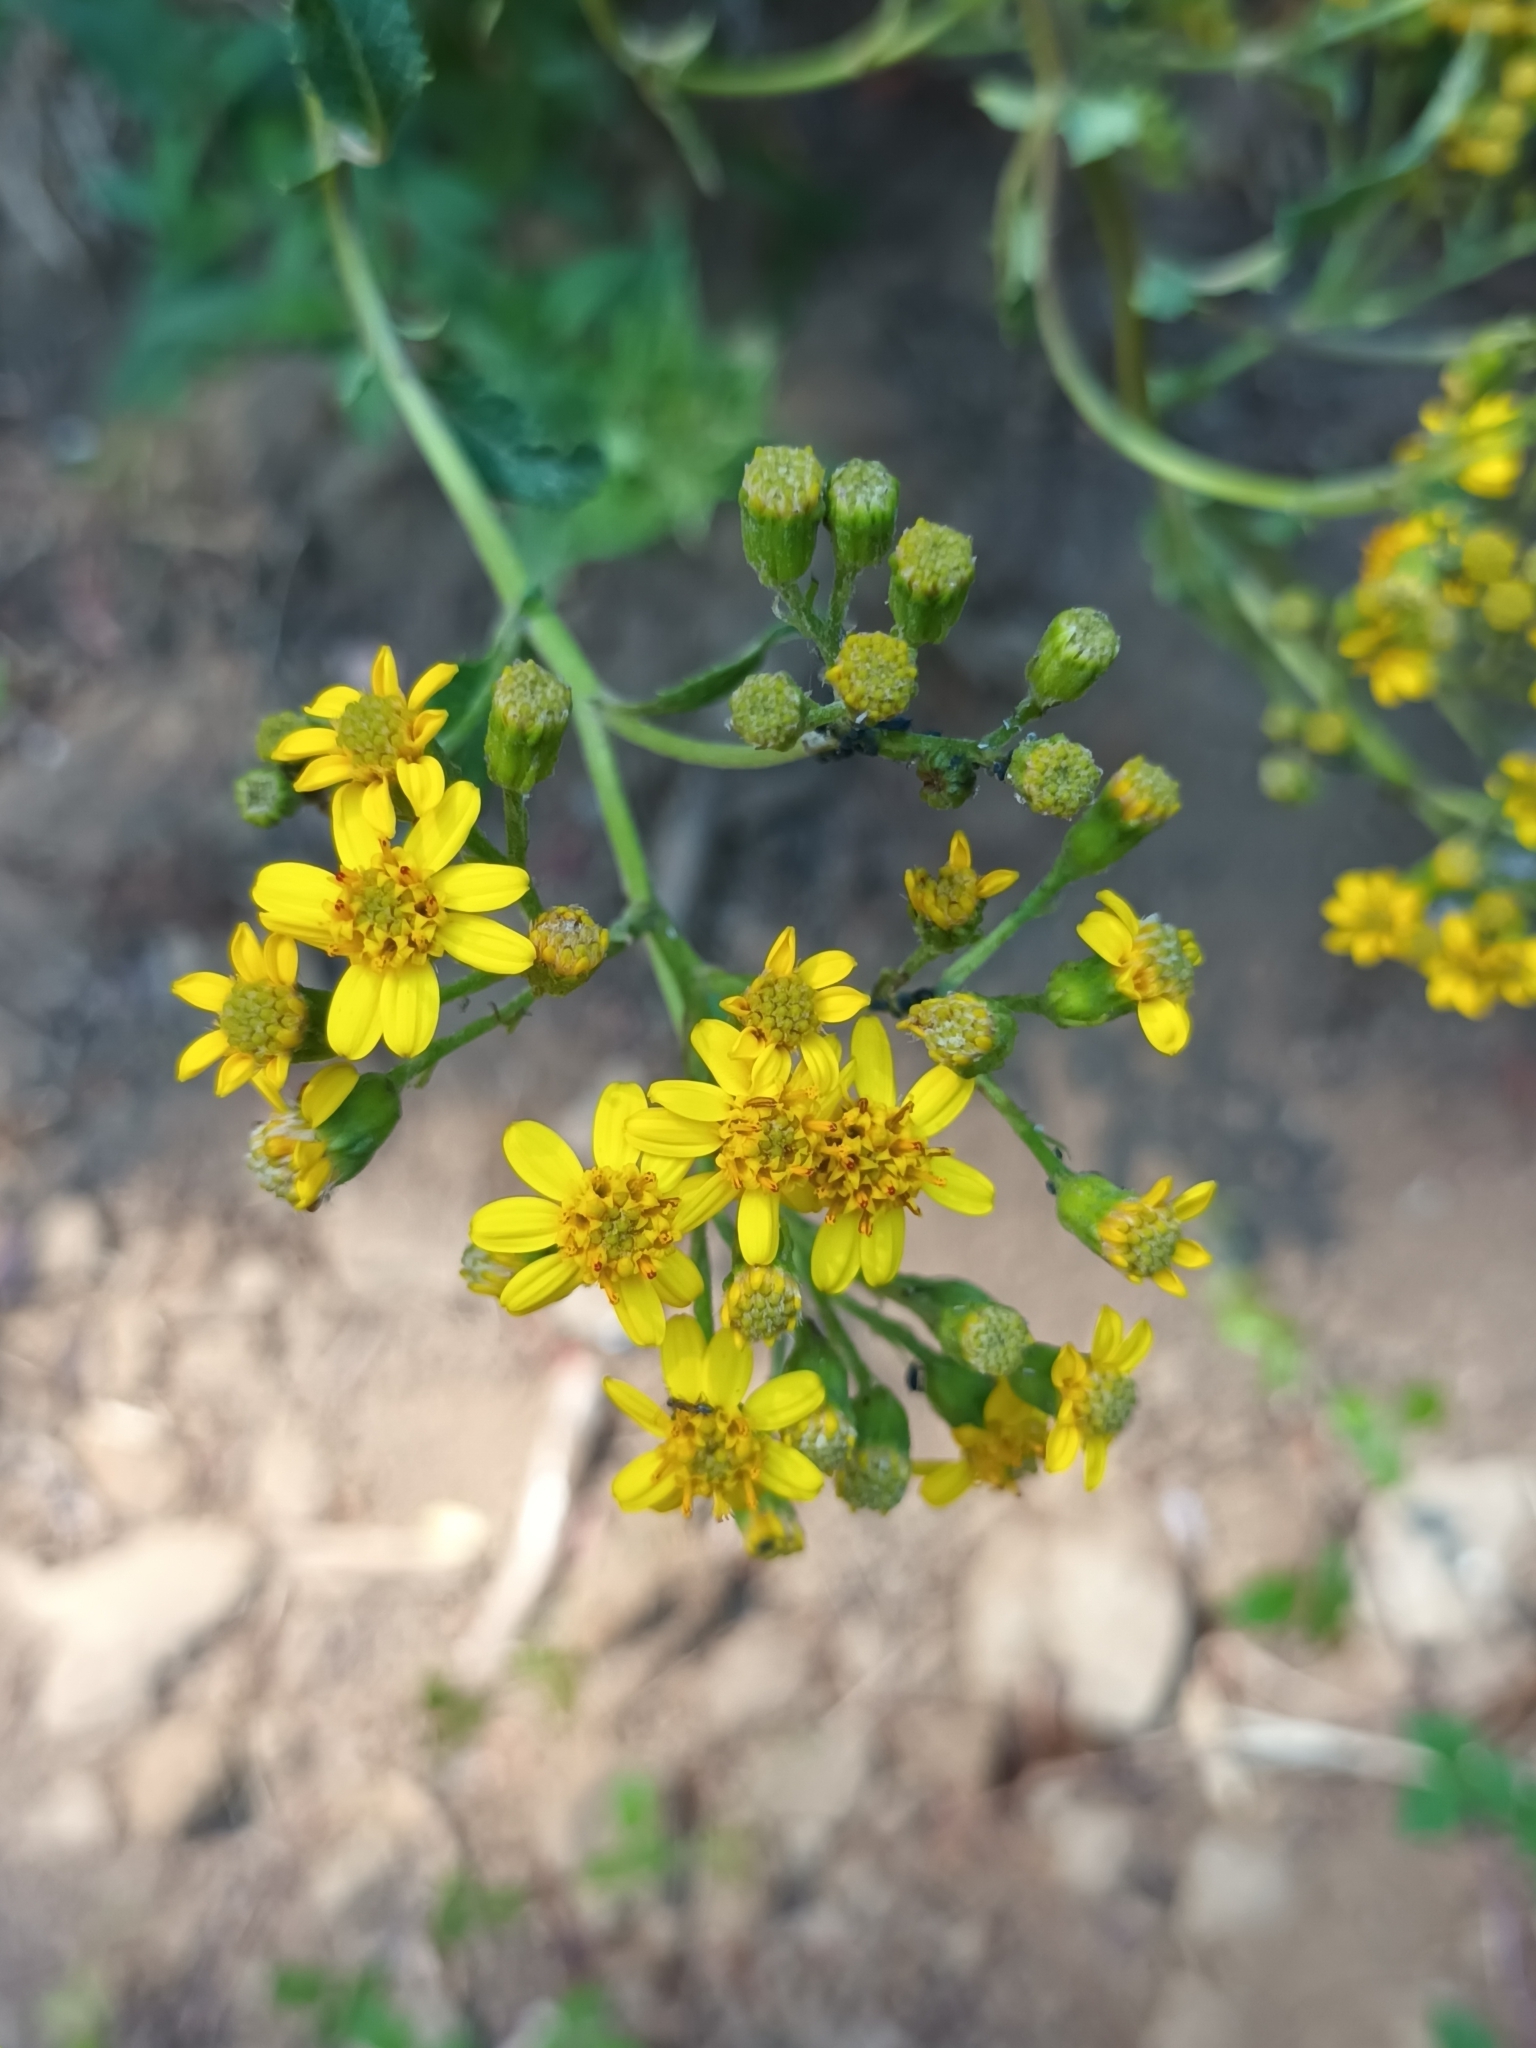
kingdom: Plantae
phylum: Tracheophyta
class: Magnoliopsida
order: Asterales
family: Asteraceae
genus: Senecio
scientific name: Senecio otites
